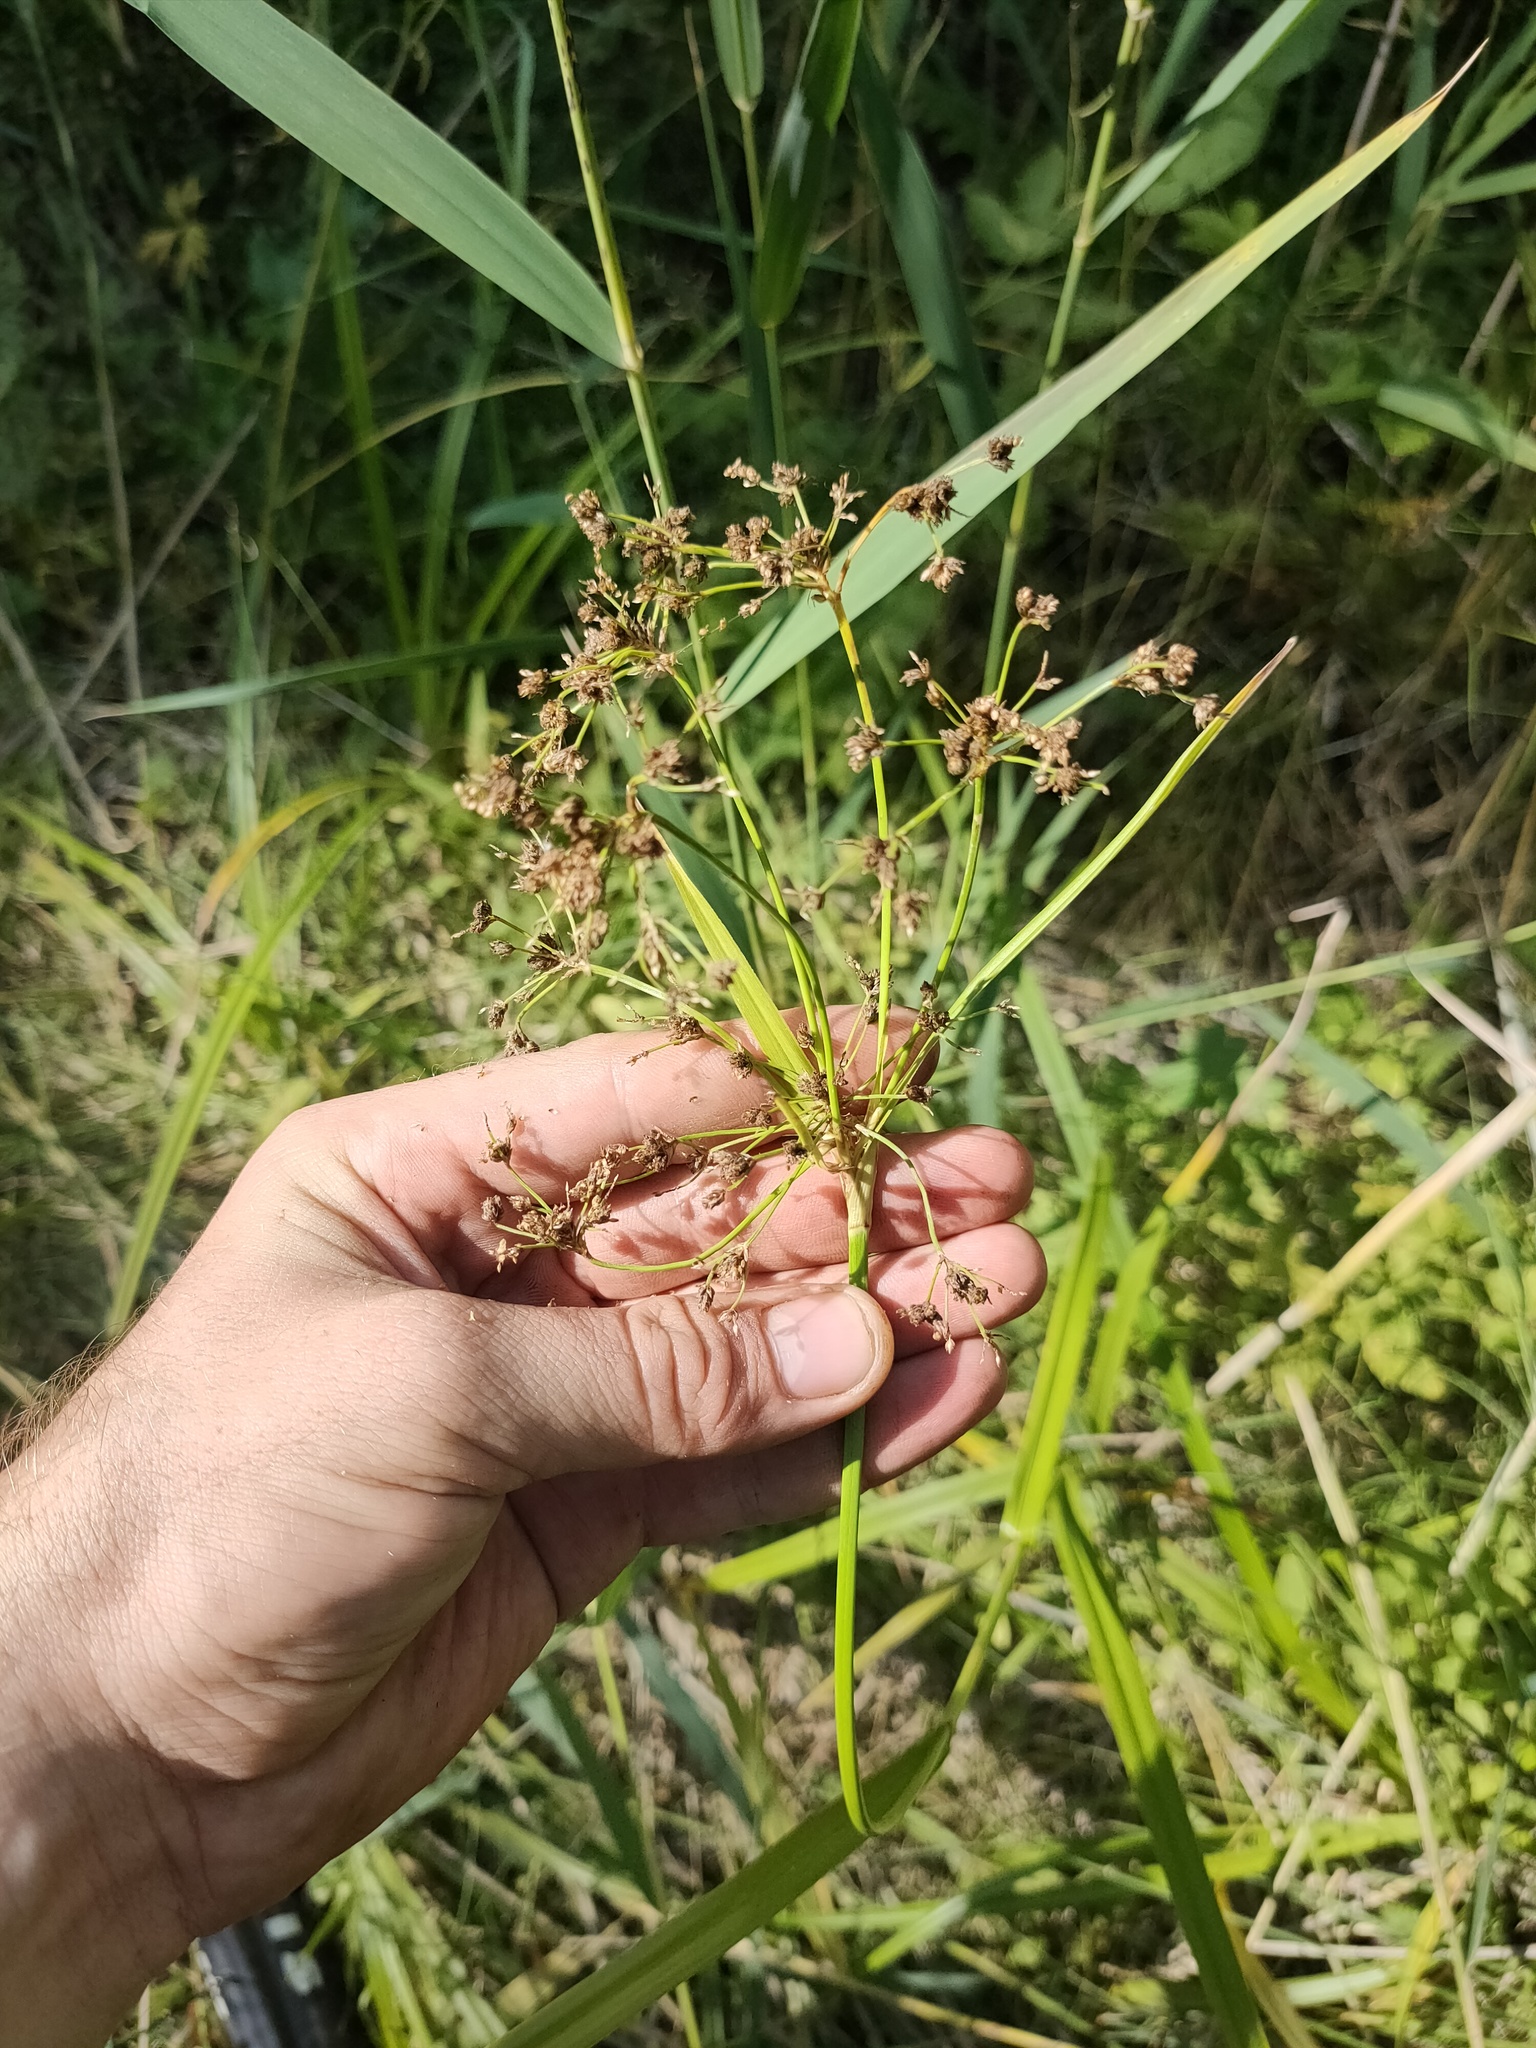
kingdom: Plantae
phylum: Tracheophyta
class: Liliopsida
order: Poales
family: Cyperaceae
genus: Scirpus
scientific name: Scirpus sylvaticus
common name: Wood club-rush
